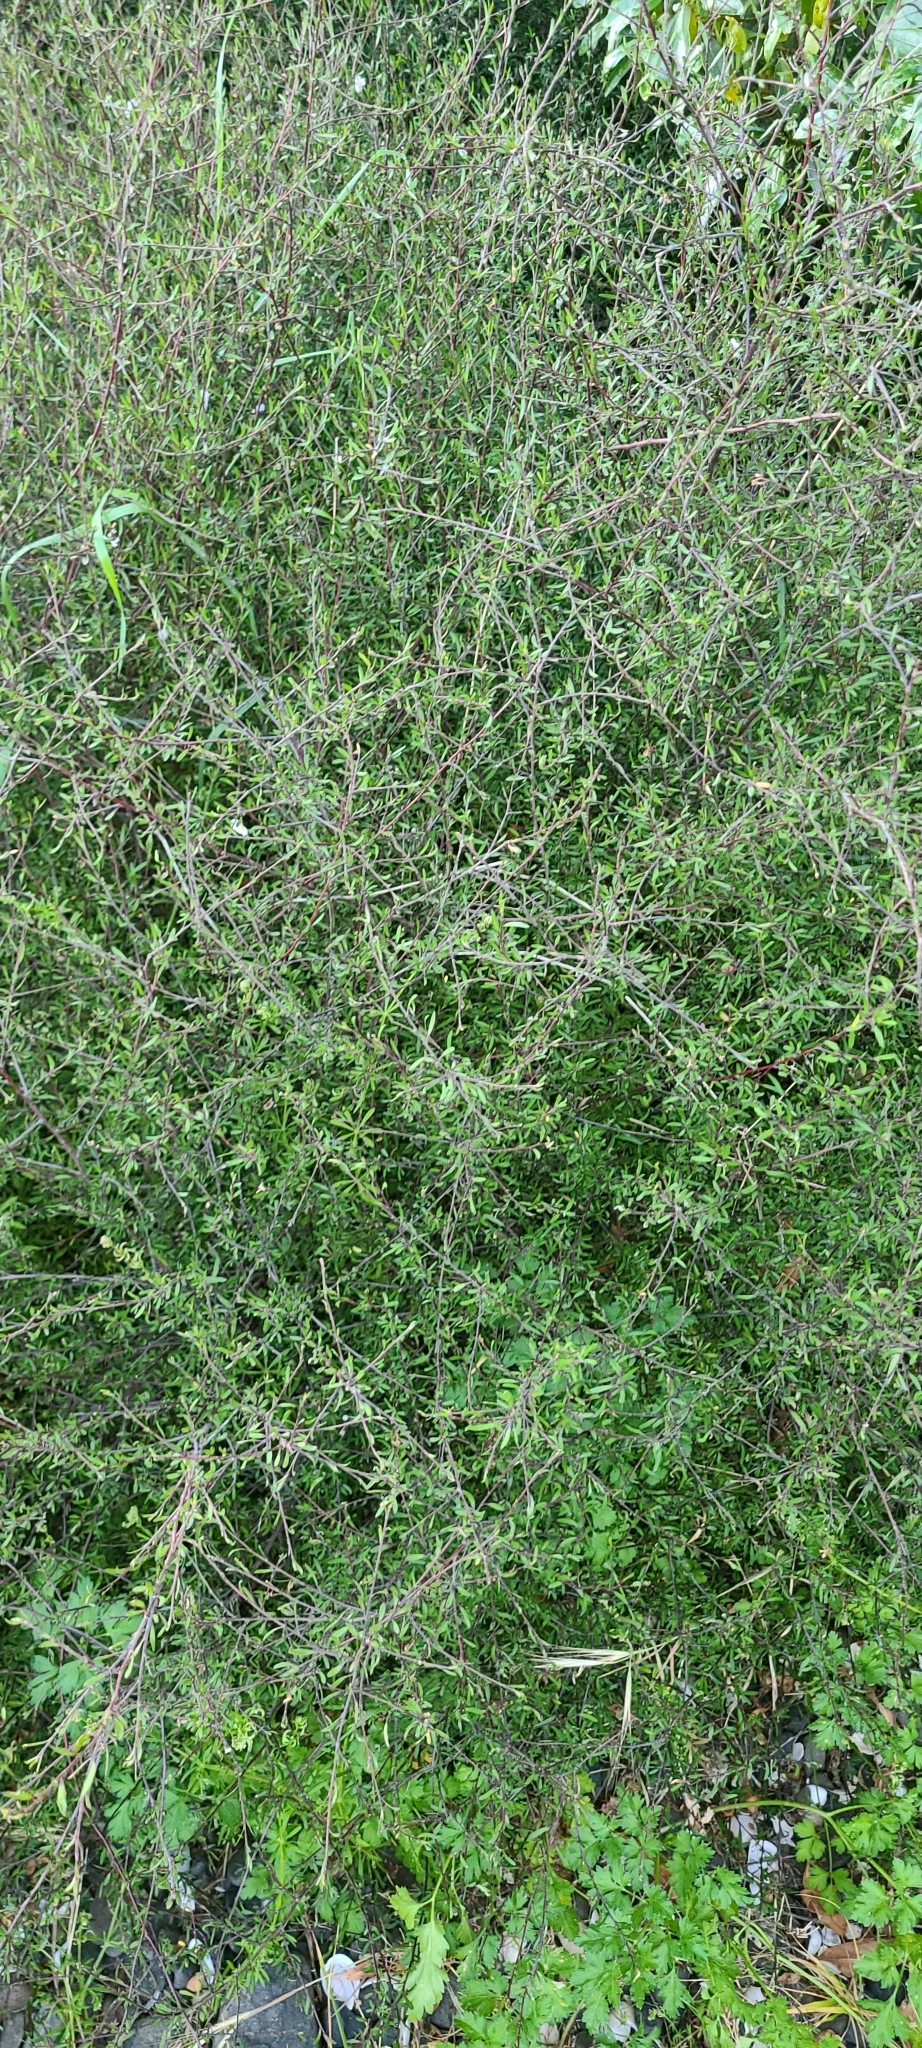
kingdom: Plantae
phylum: Tracheophyta
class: Magnoliopsida
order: Malvales
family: Malvaceae
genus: Plagianthus
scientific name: Plagianthus divaricatus
